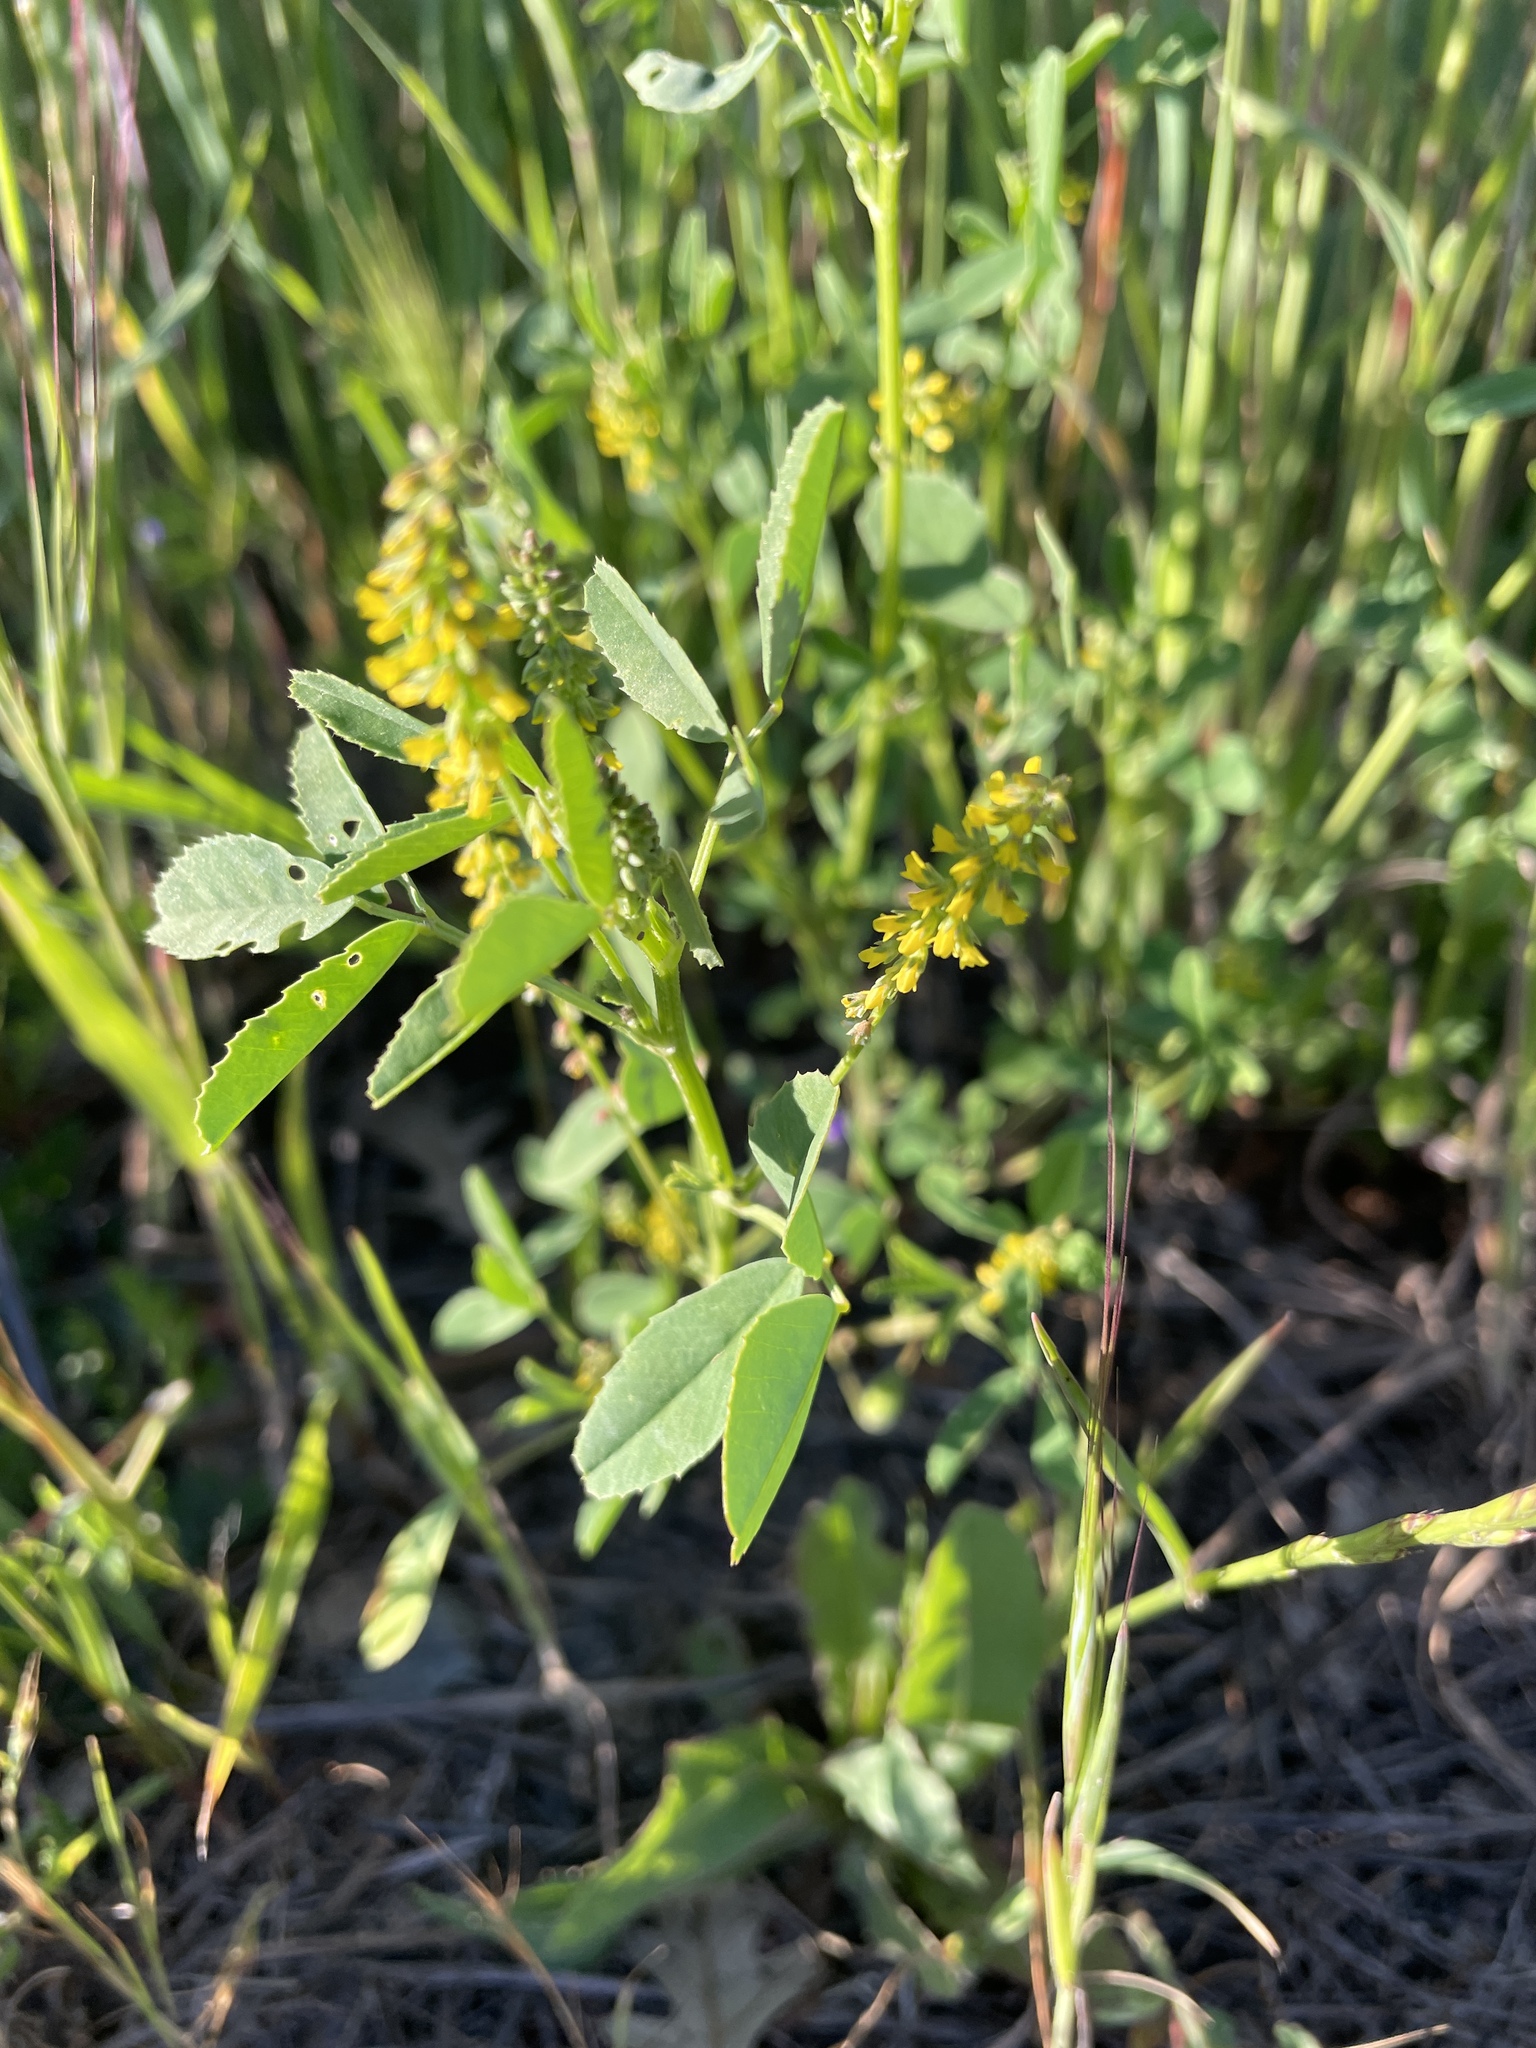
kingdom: Plantae
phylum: Tracheophyta
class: Magnoliopsida
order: Fabales
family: Fabaceae
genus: Melilotus
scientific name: Melilotus indicus
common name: Small melilot
